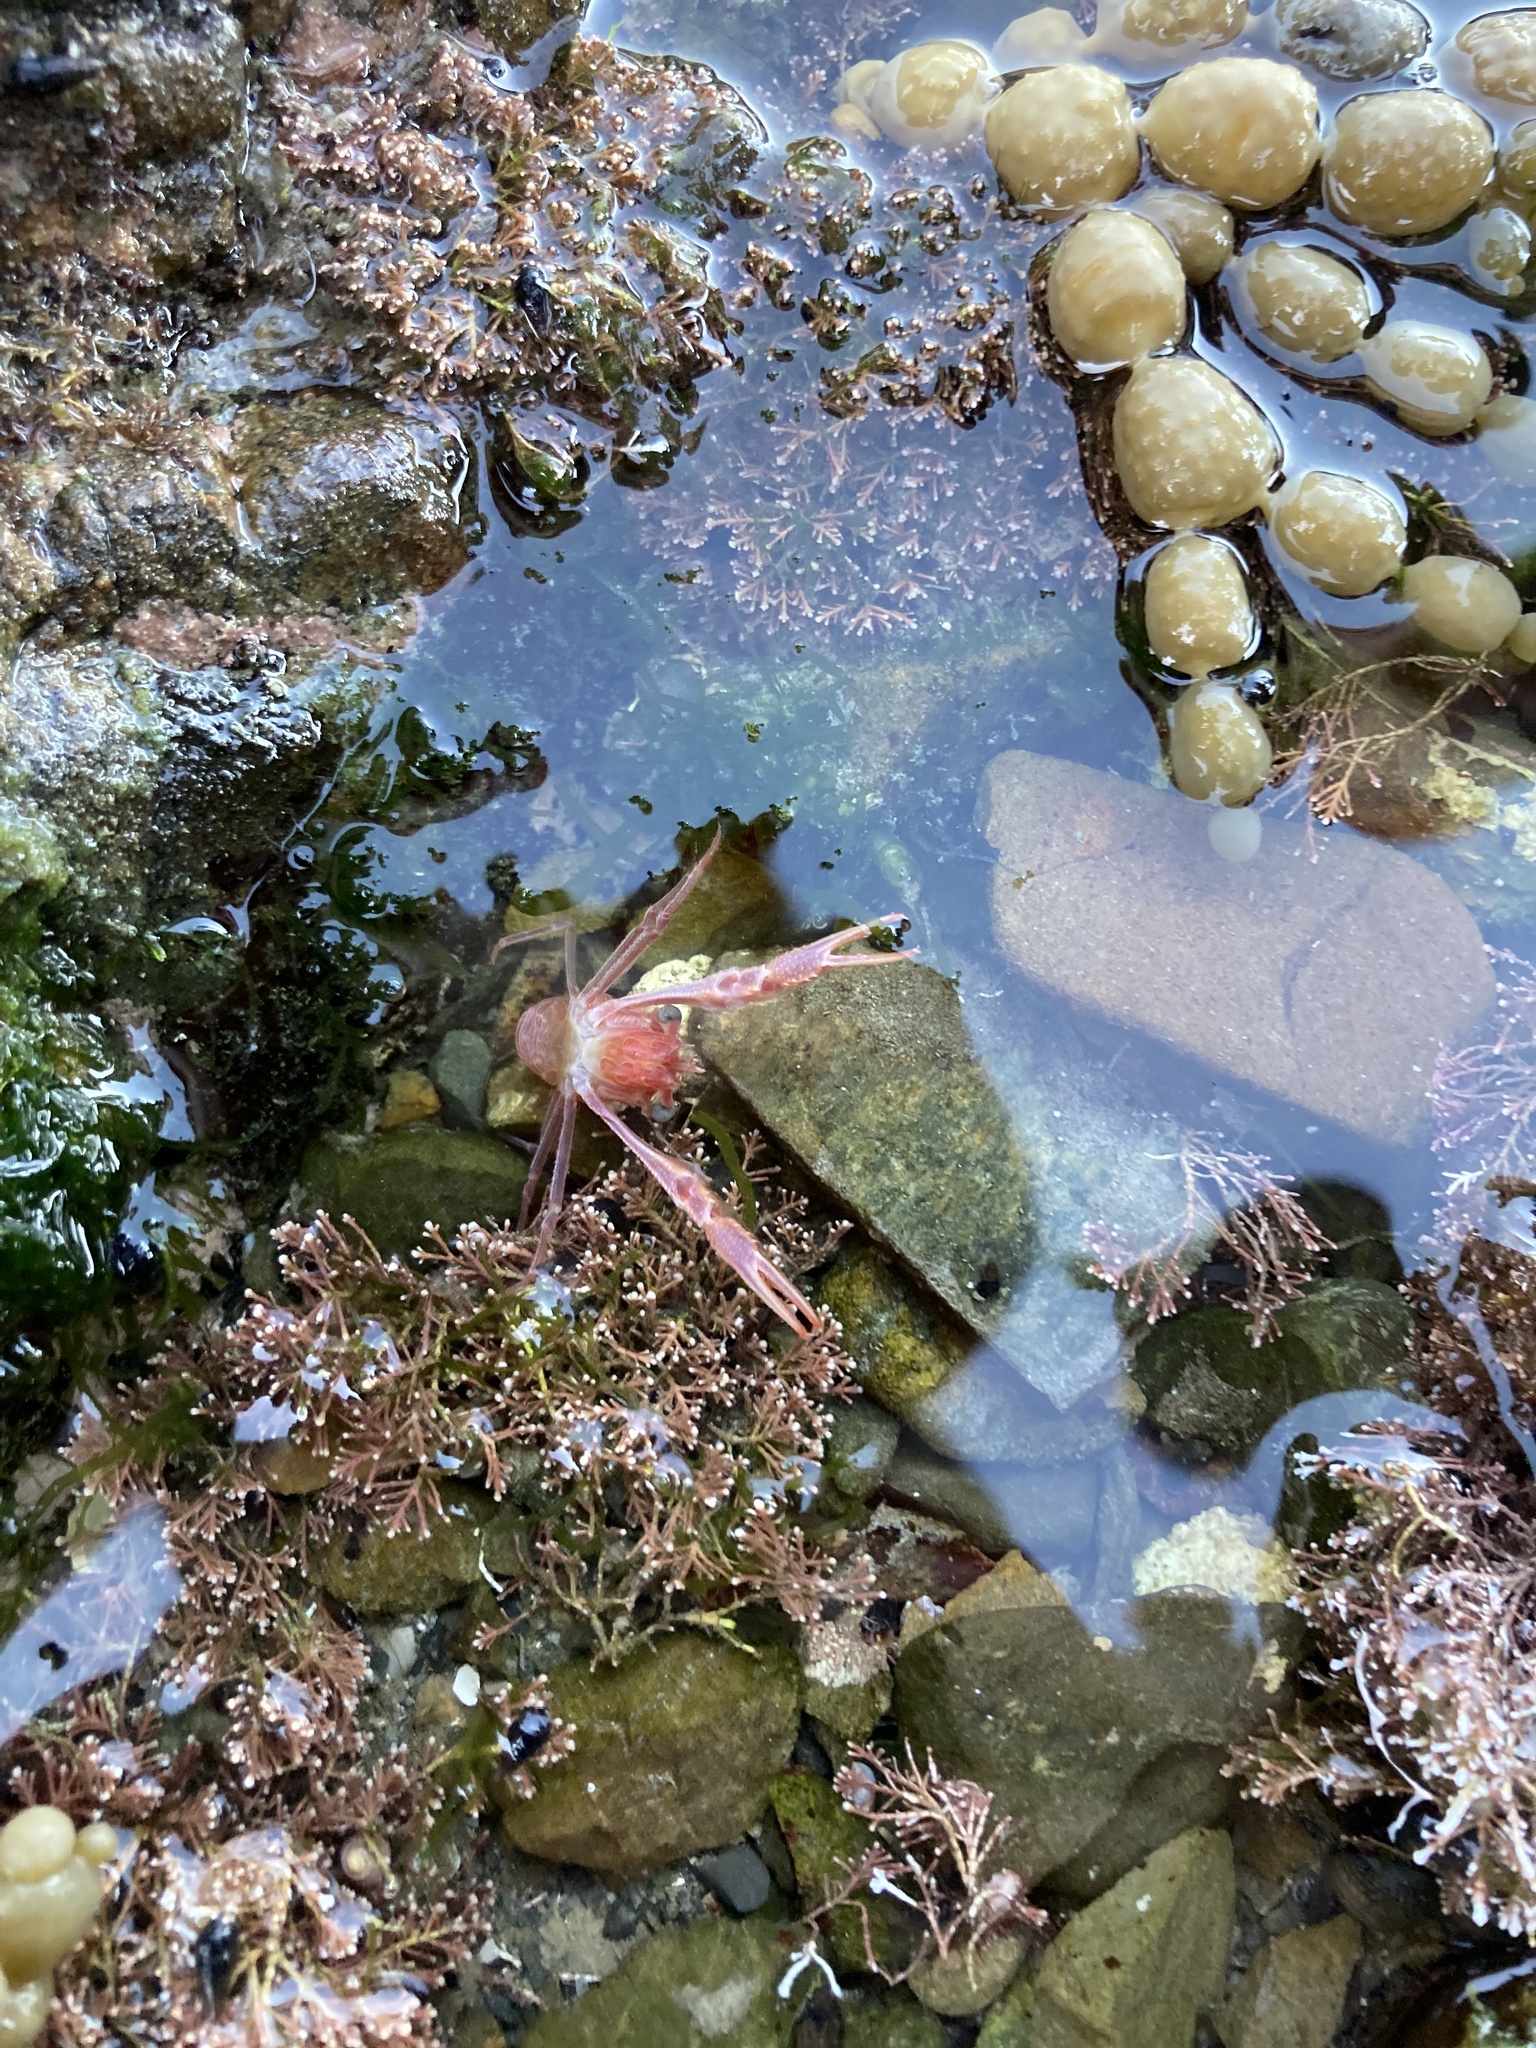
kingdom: Animalia
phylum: Arthropoda
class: Malacostraca
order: Decapoda
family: Munididae
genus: Grimothea
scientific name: Grimothea gregaria
